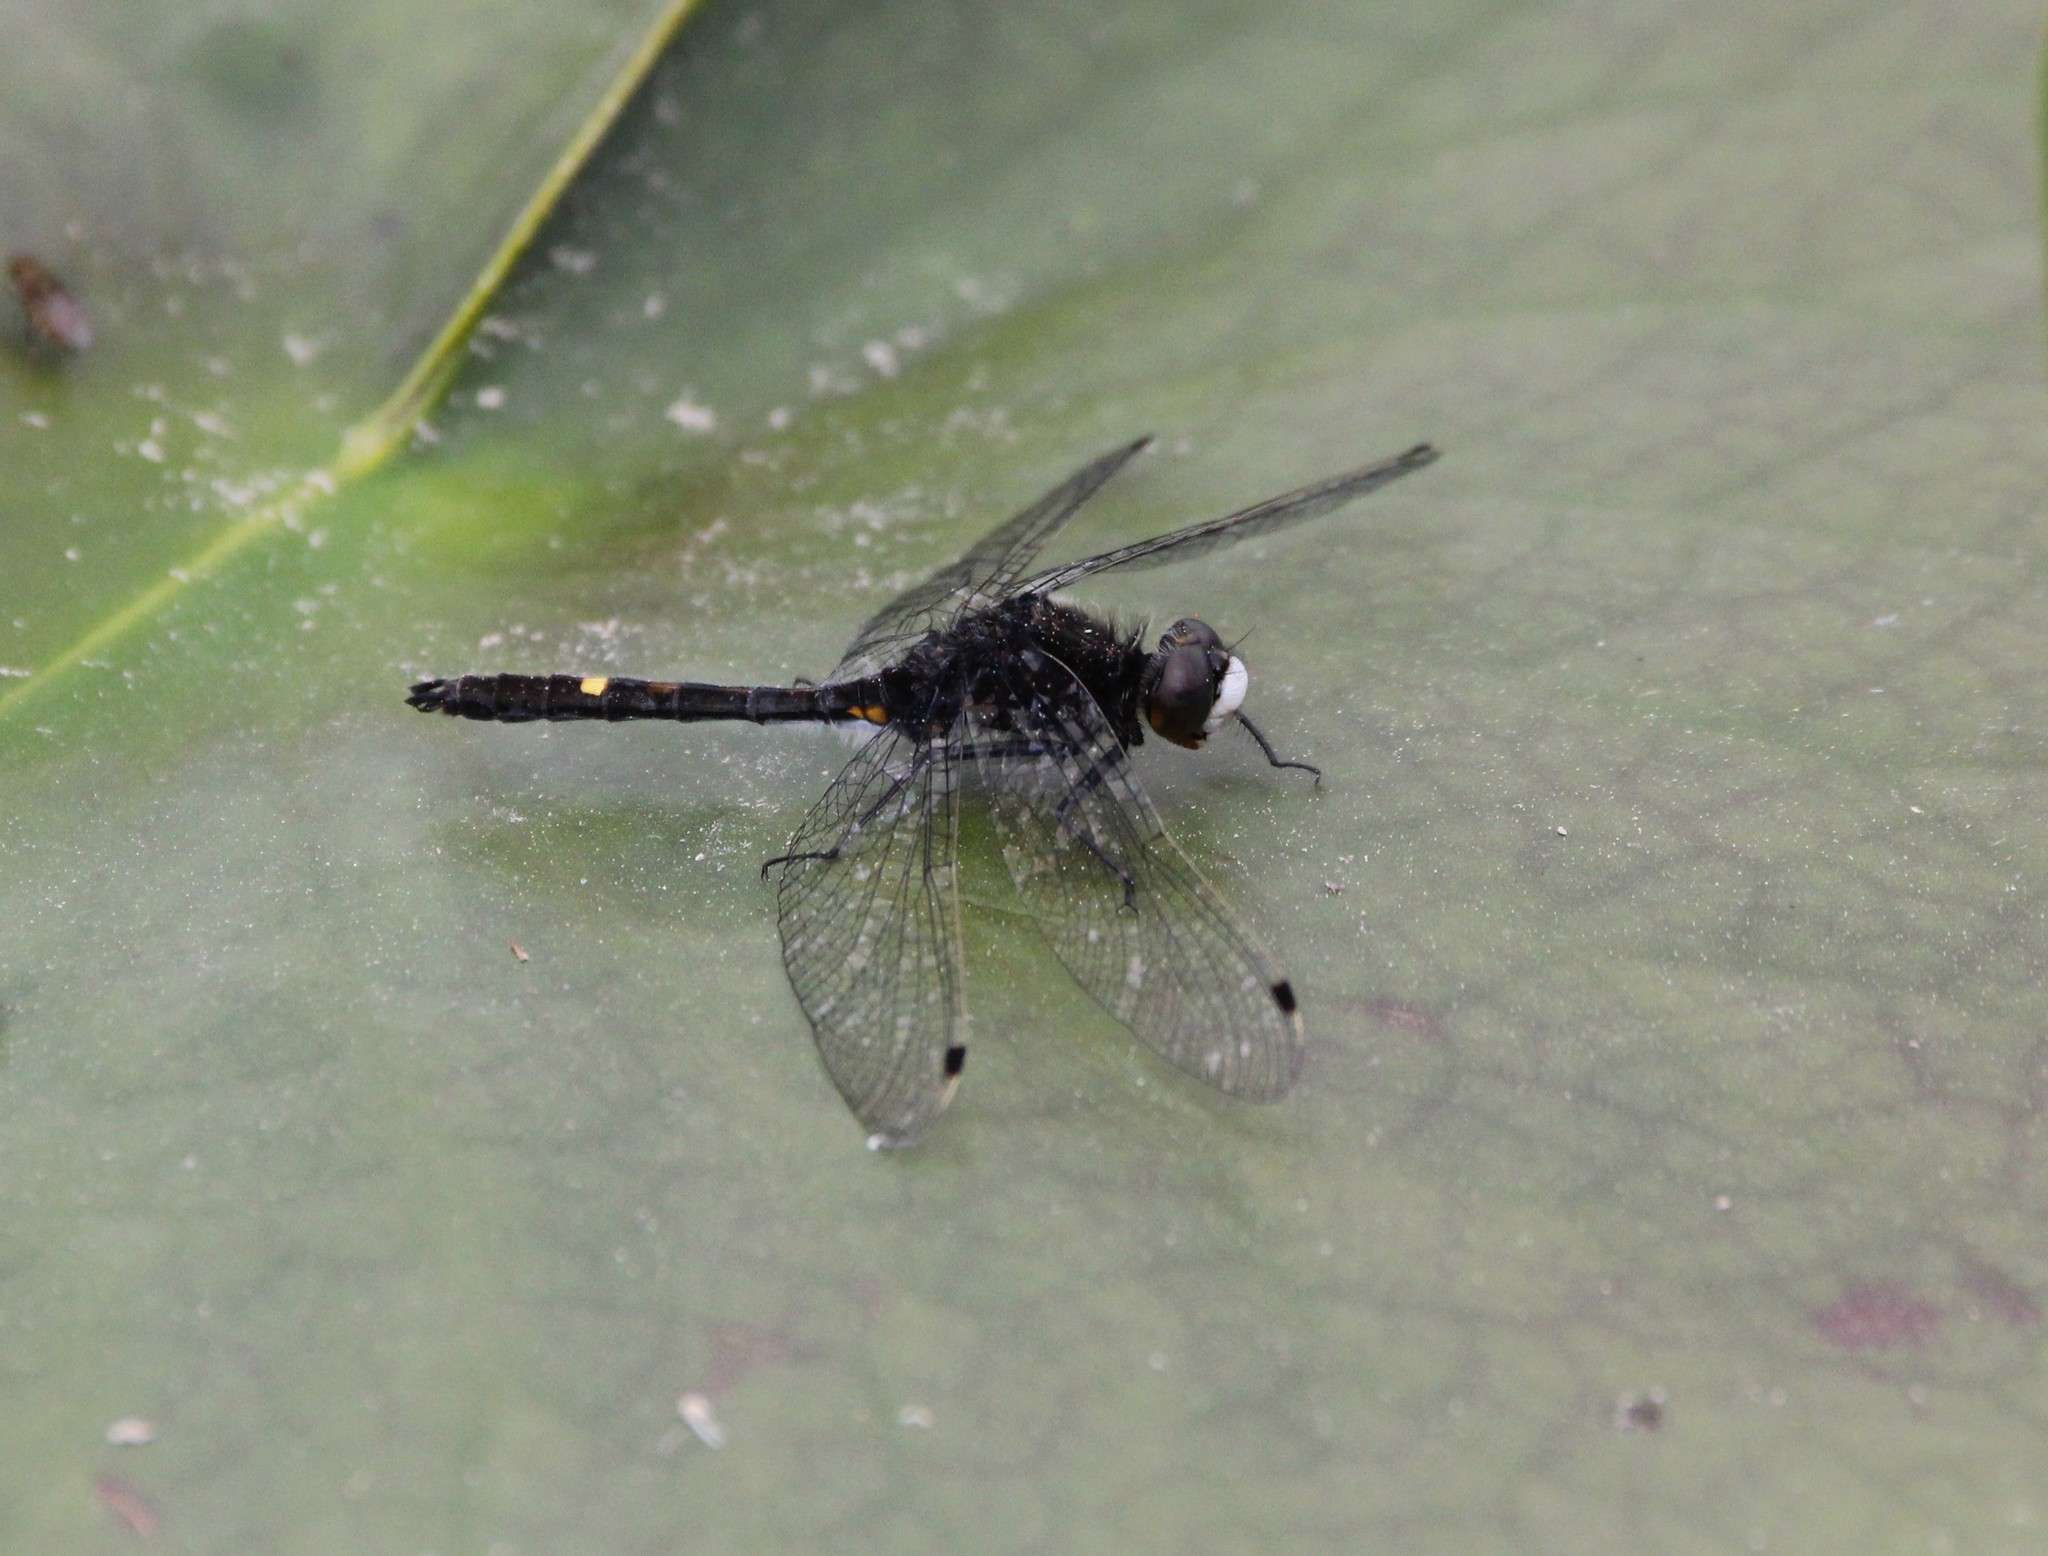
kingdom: Animalia
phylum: Arthropoda
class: Insecta
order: Odonata
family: Libellulidae
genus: Leucorrhinia
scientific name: Leucorrhinia intacta
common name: Dot-tailed whiteface
